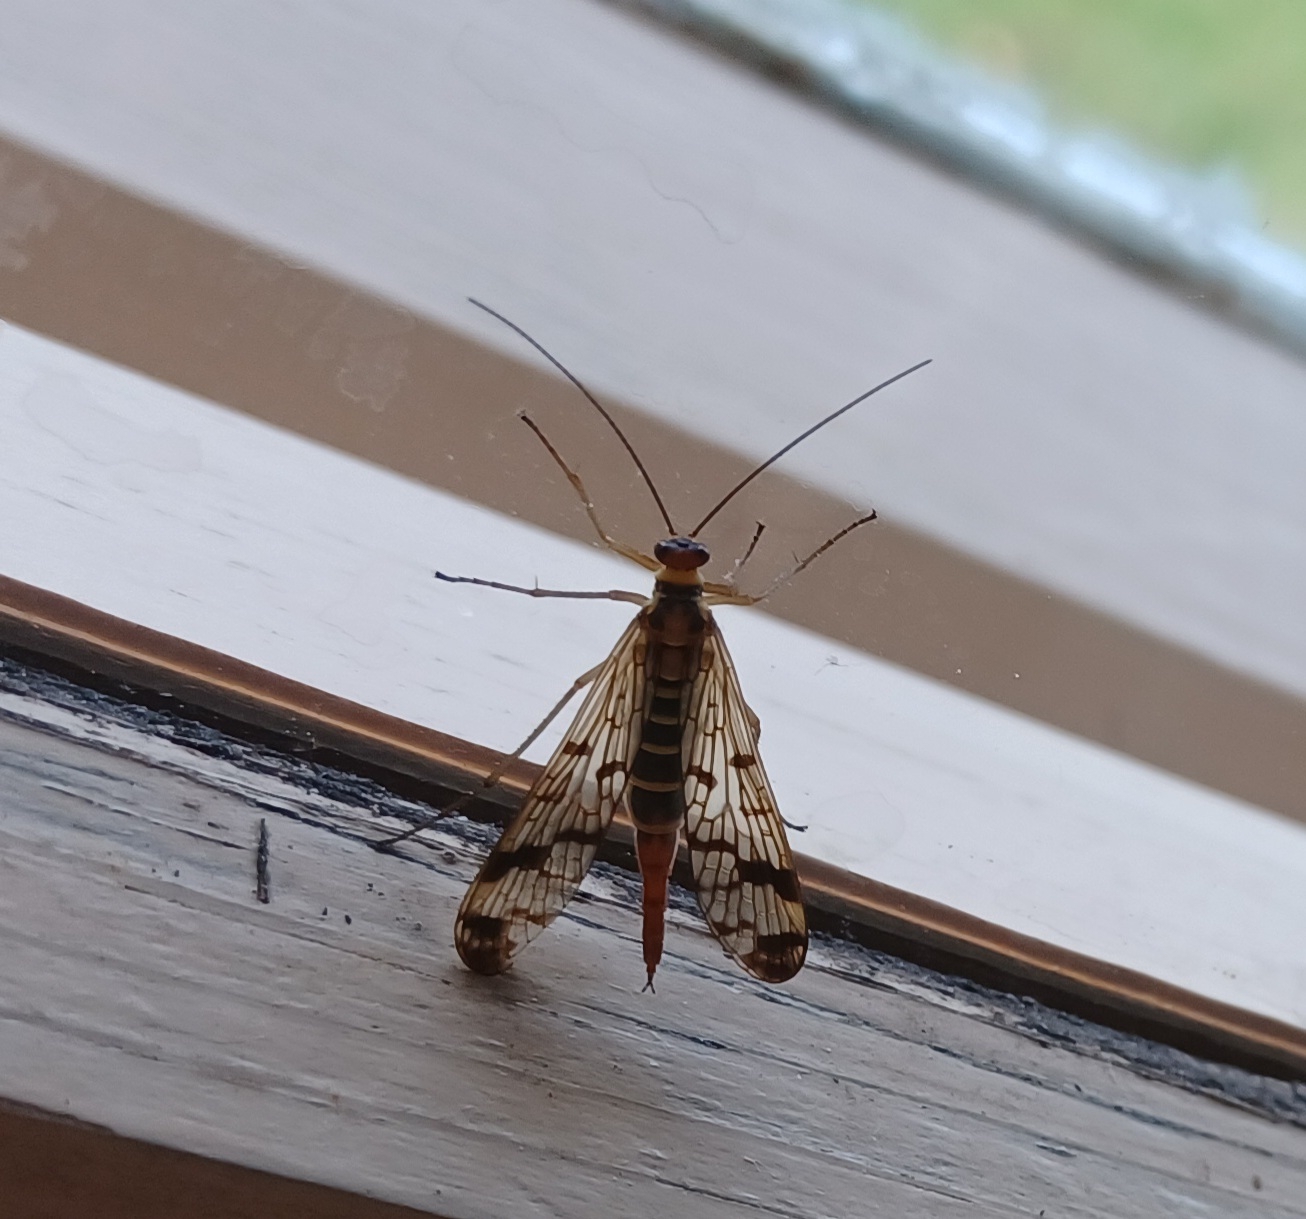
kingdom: Animalia
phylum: Arthropoda
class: Insecta
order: Mecoptera
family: Panorpidae
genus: Panorpa
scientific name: Panorpa communis
